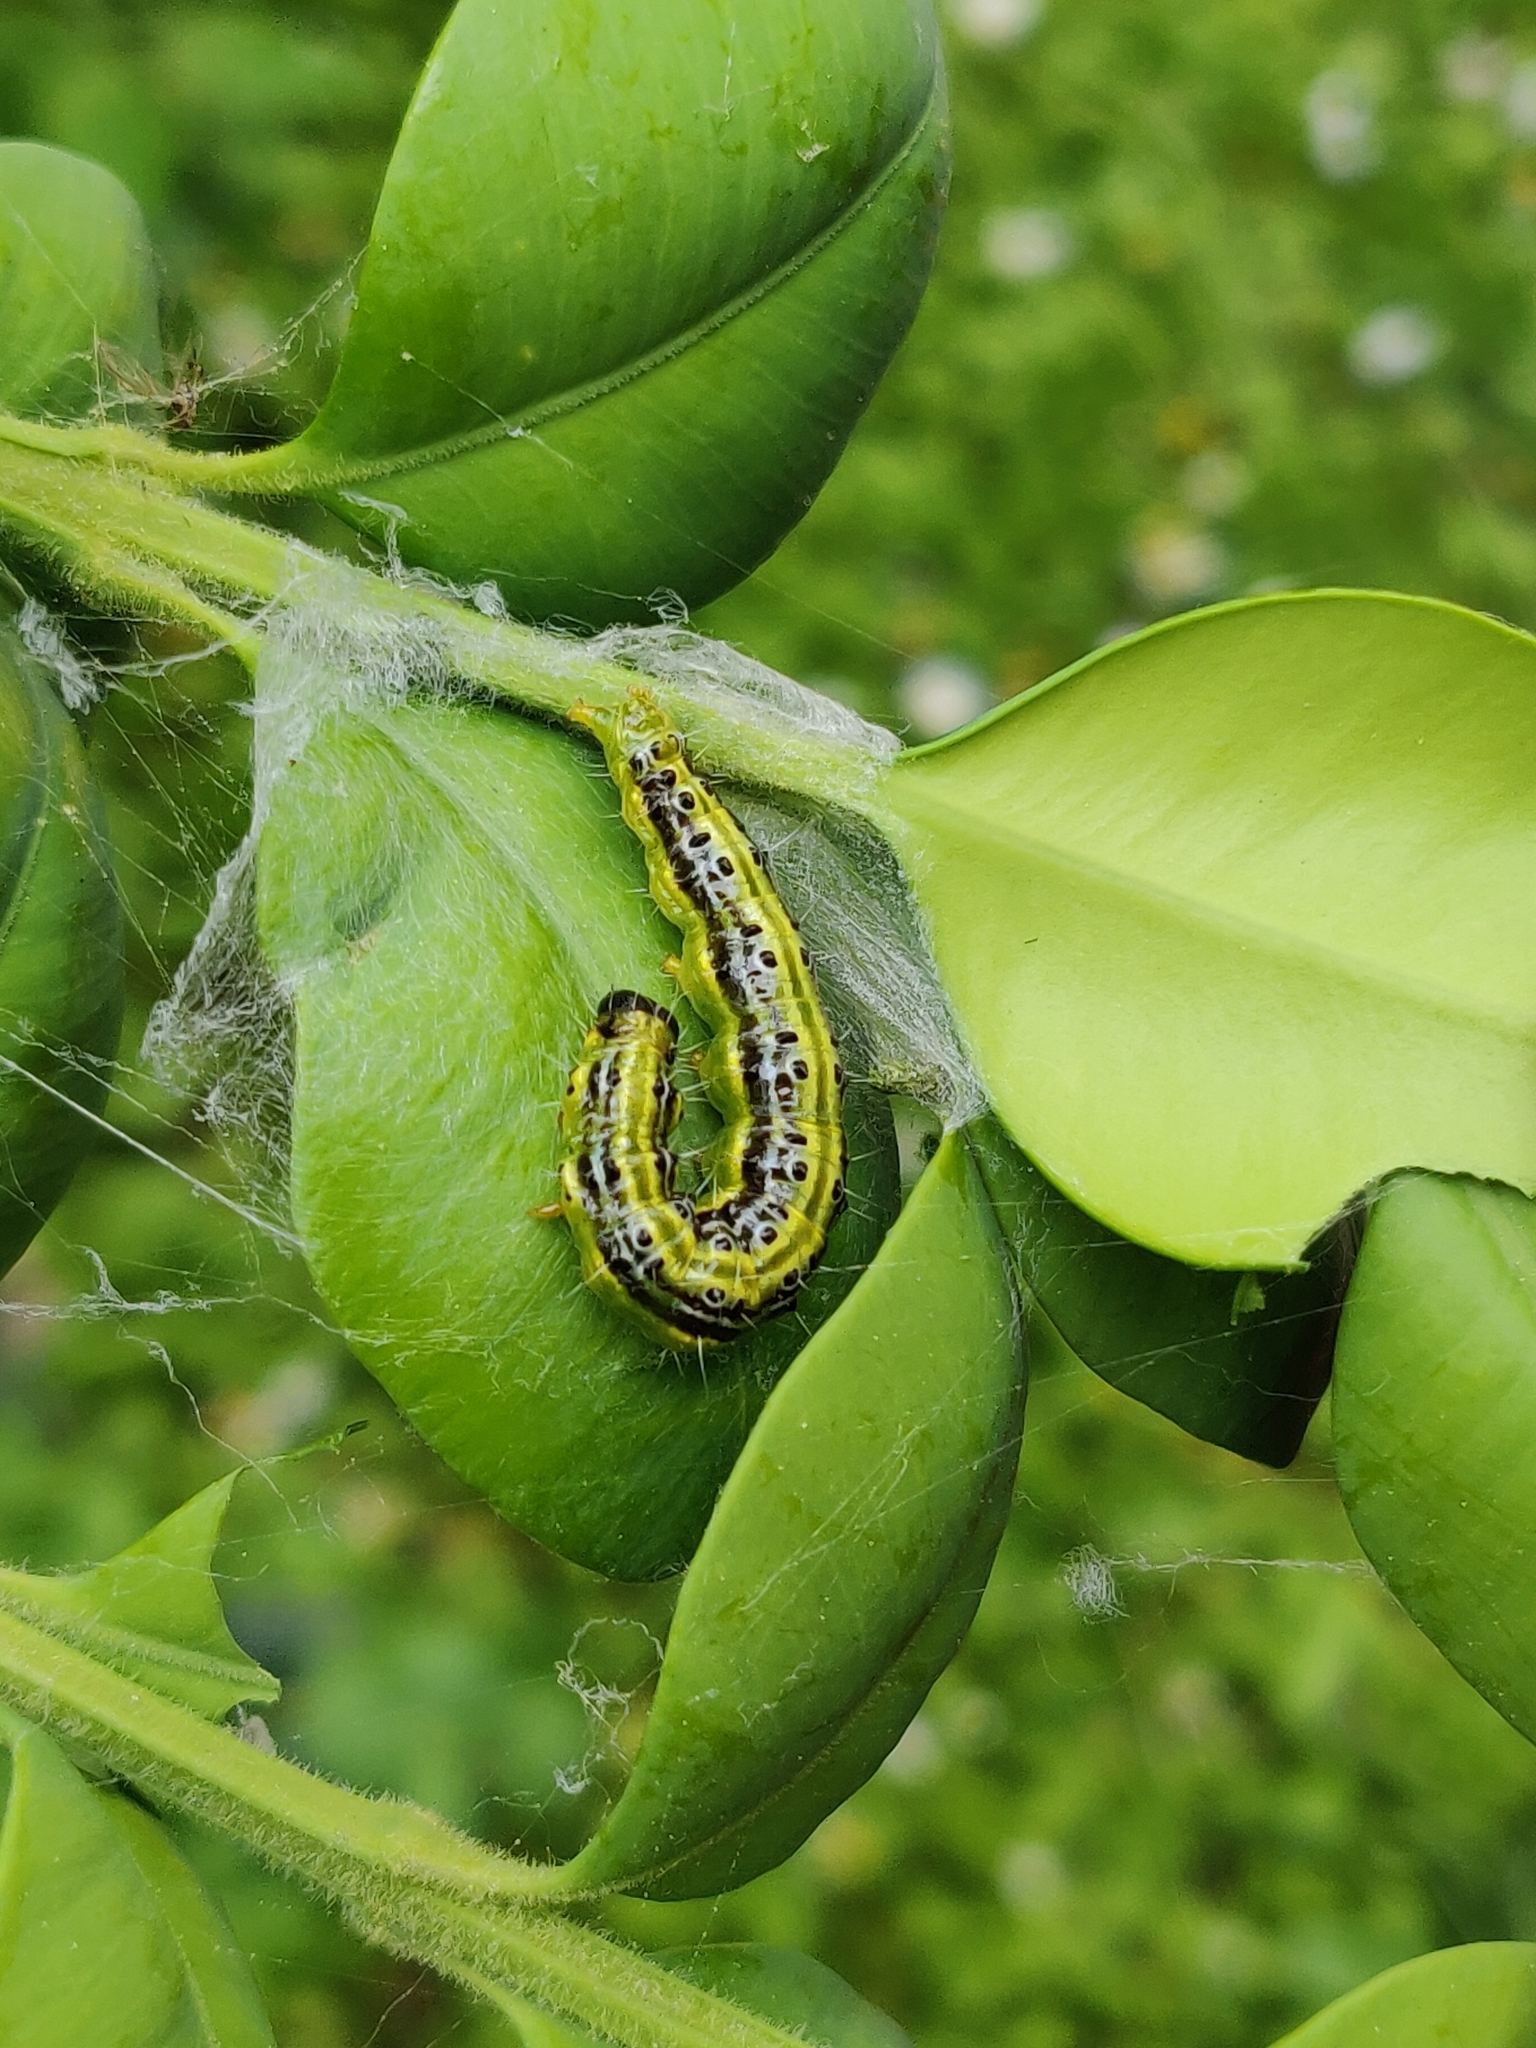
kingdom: Animalia
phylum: Arthropoda
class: Insecta
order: Lepidoptera
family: Crambidae
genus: Cydalima
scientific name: Cydalima perspectalis
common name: Box tree moth
